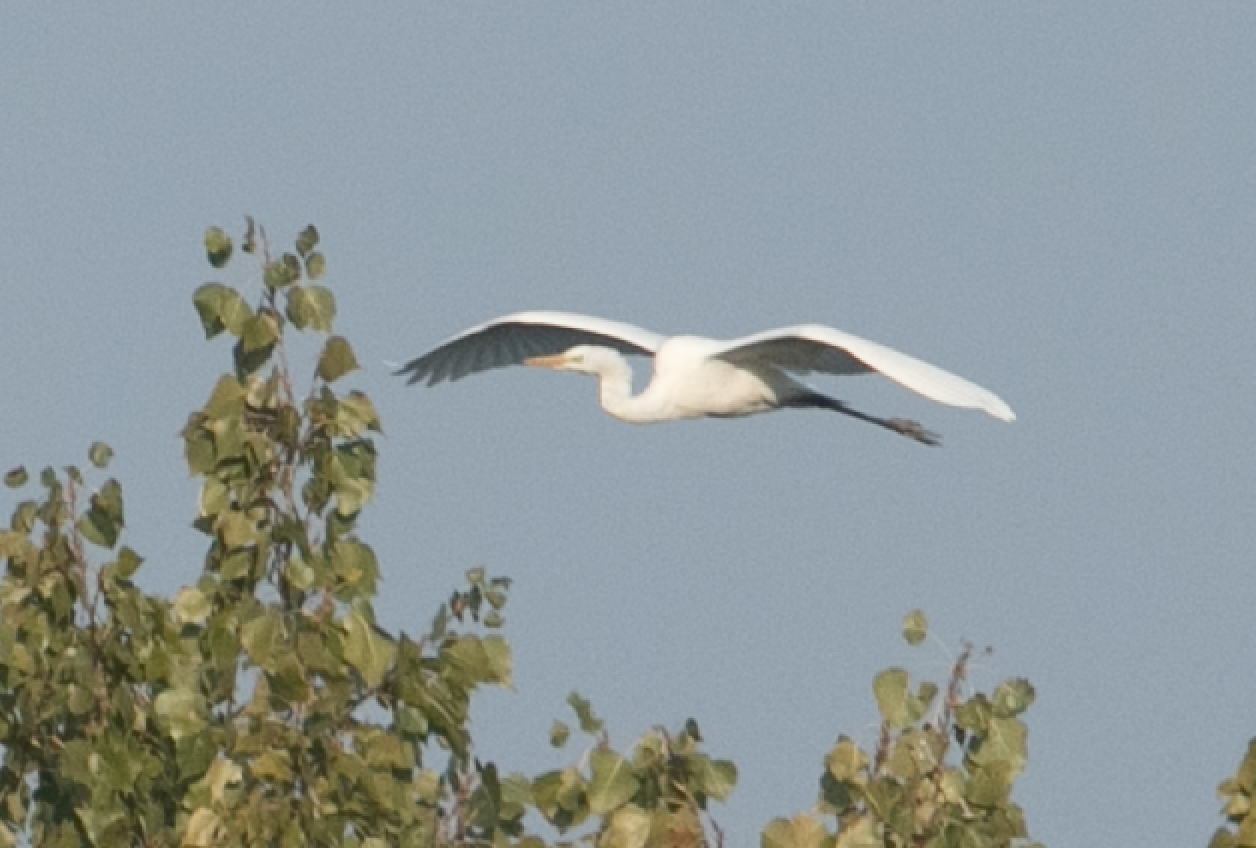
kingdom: Animalia
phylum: Chordata
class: Aves
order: Pelecaniformes
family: Ardeidae
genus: Ardea
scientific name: Ardea alba
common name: Great egret
